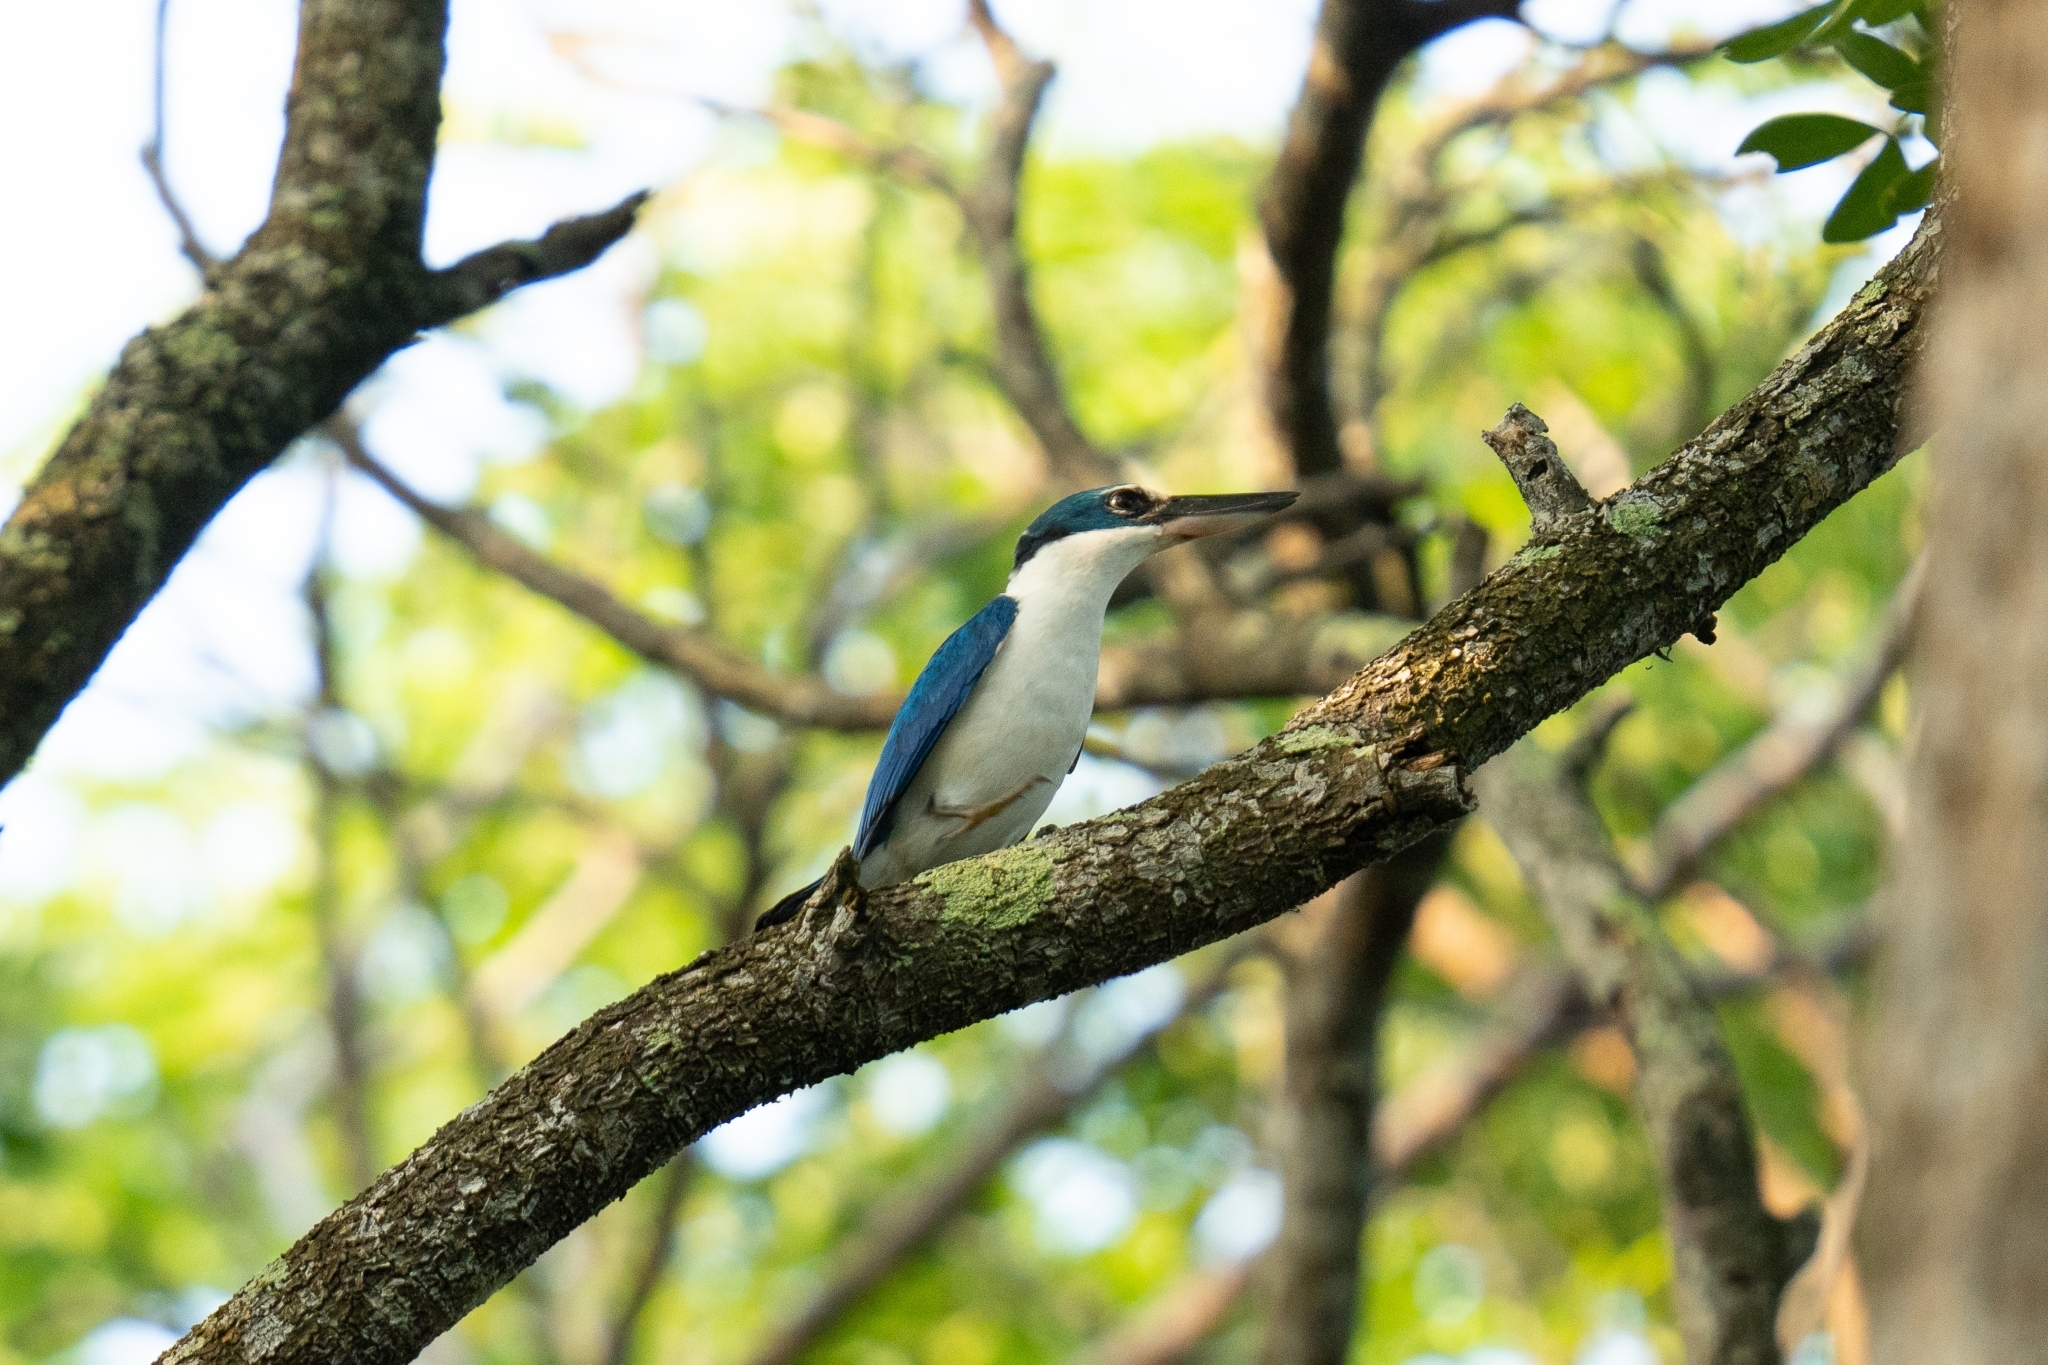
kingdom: Animalia
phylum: Chordata
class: Aves
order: Coraciiformes
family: Alcedinidae
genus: Todiramphus
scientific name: Todiramphus chloris
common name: Collared kingfisher
